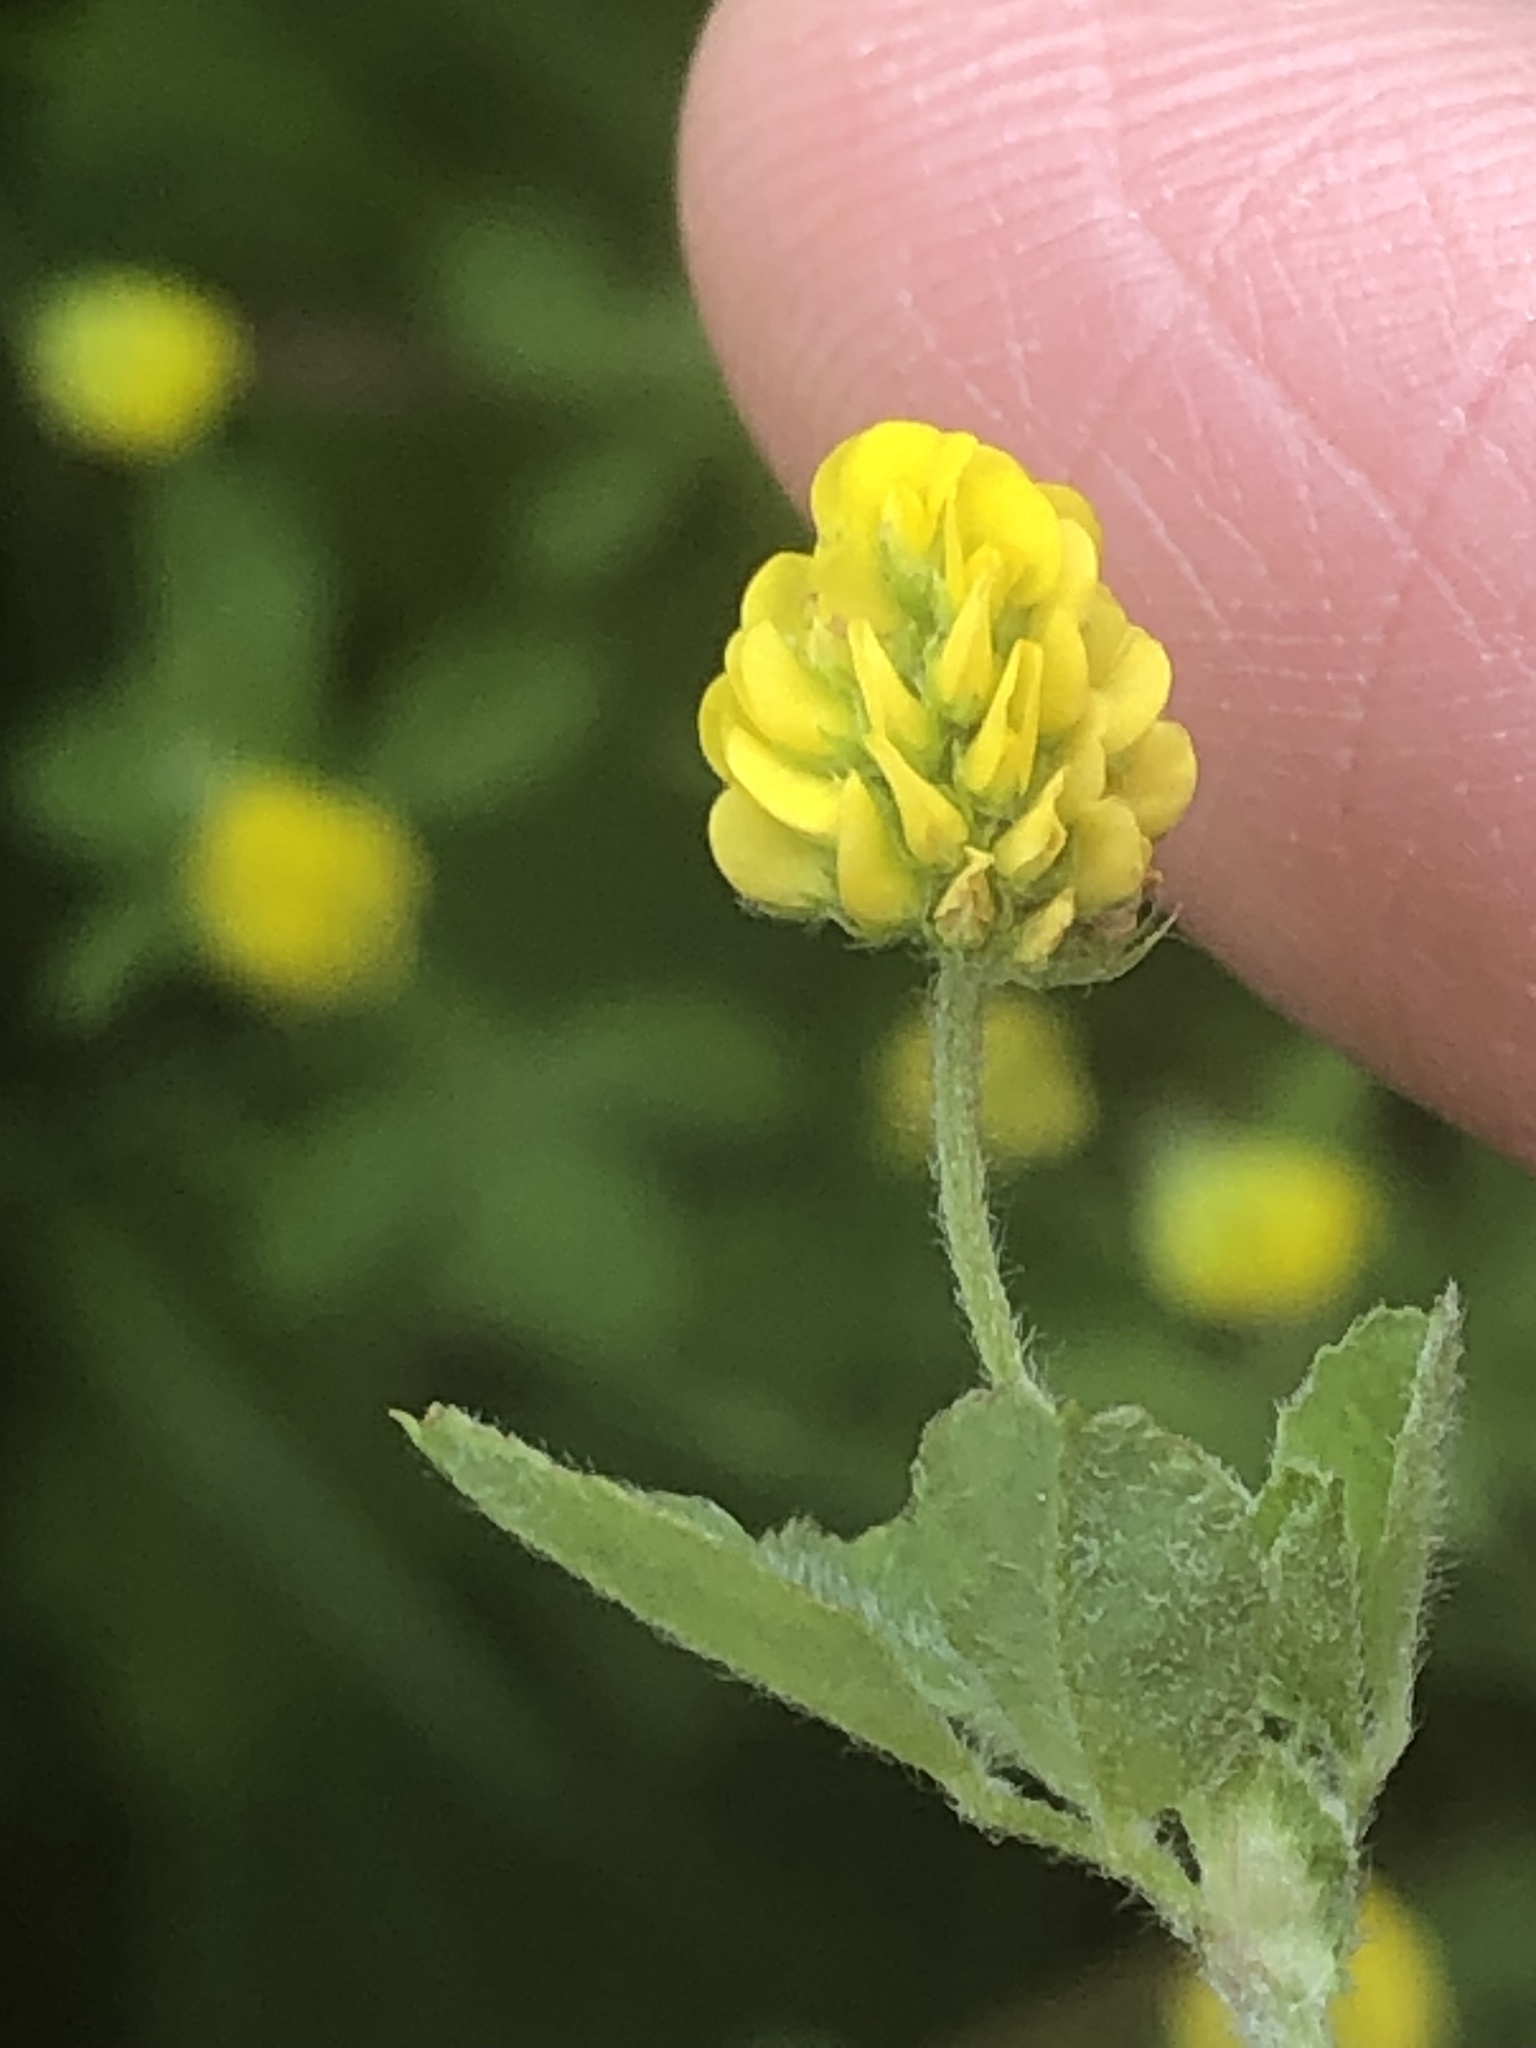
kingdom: Plantae
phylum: Tracheophyta
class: Magnoliopsida
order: Fabales
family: Fabaceae
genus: Medicago
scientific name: Medicago lupulina
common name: Black medick
